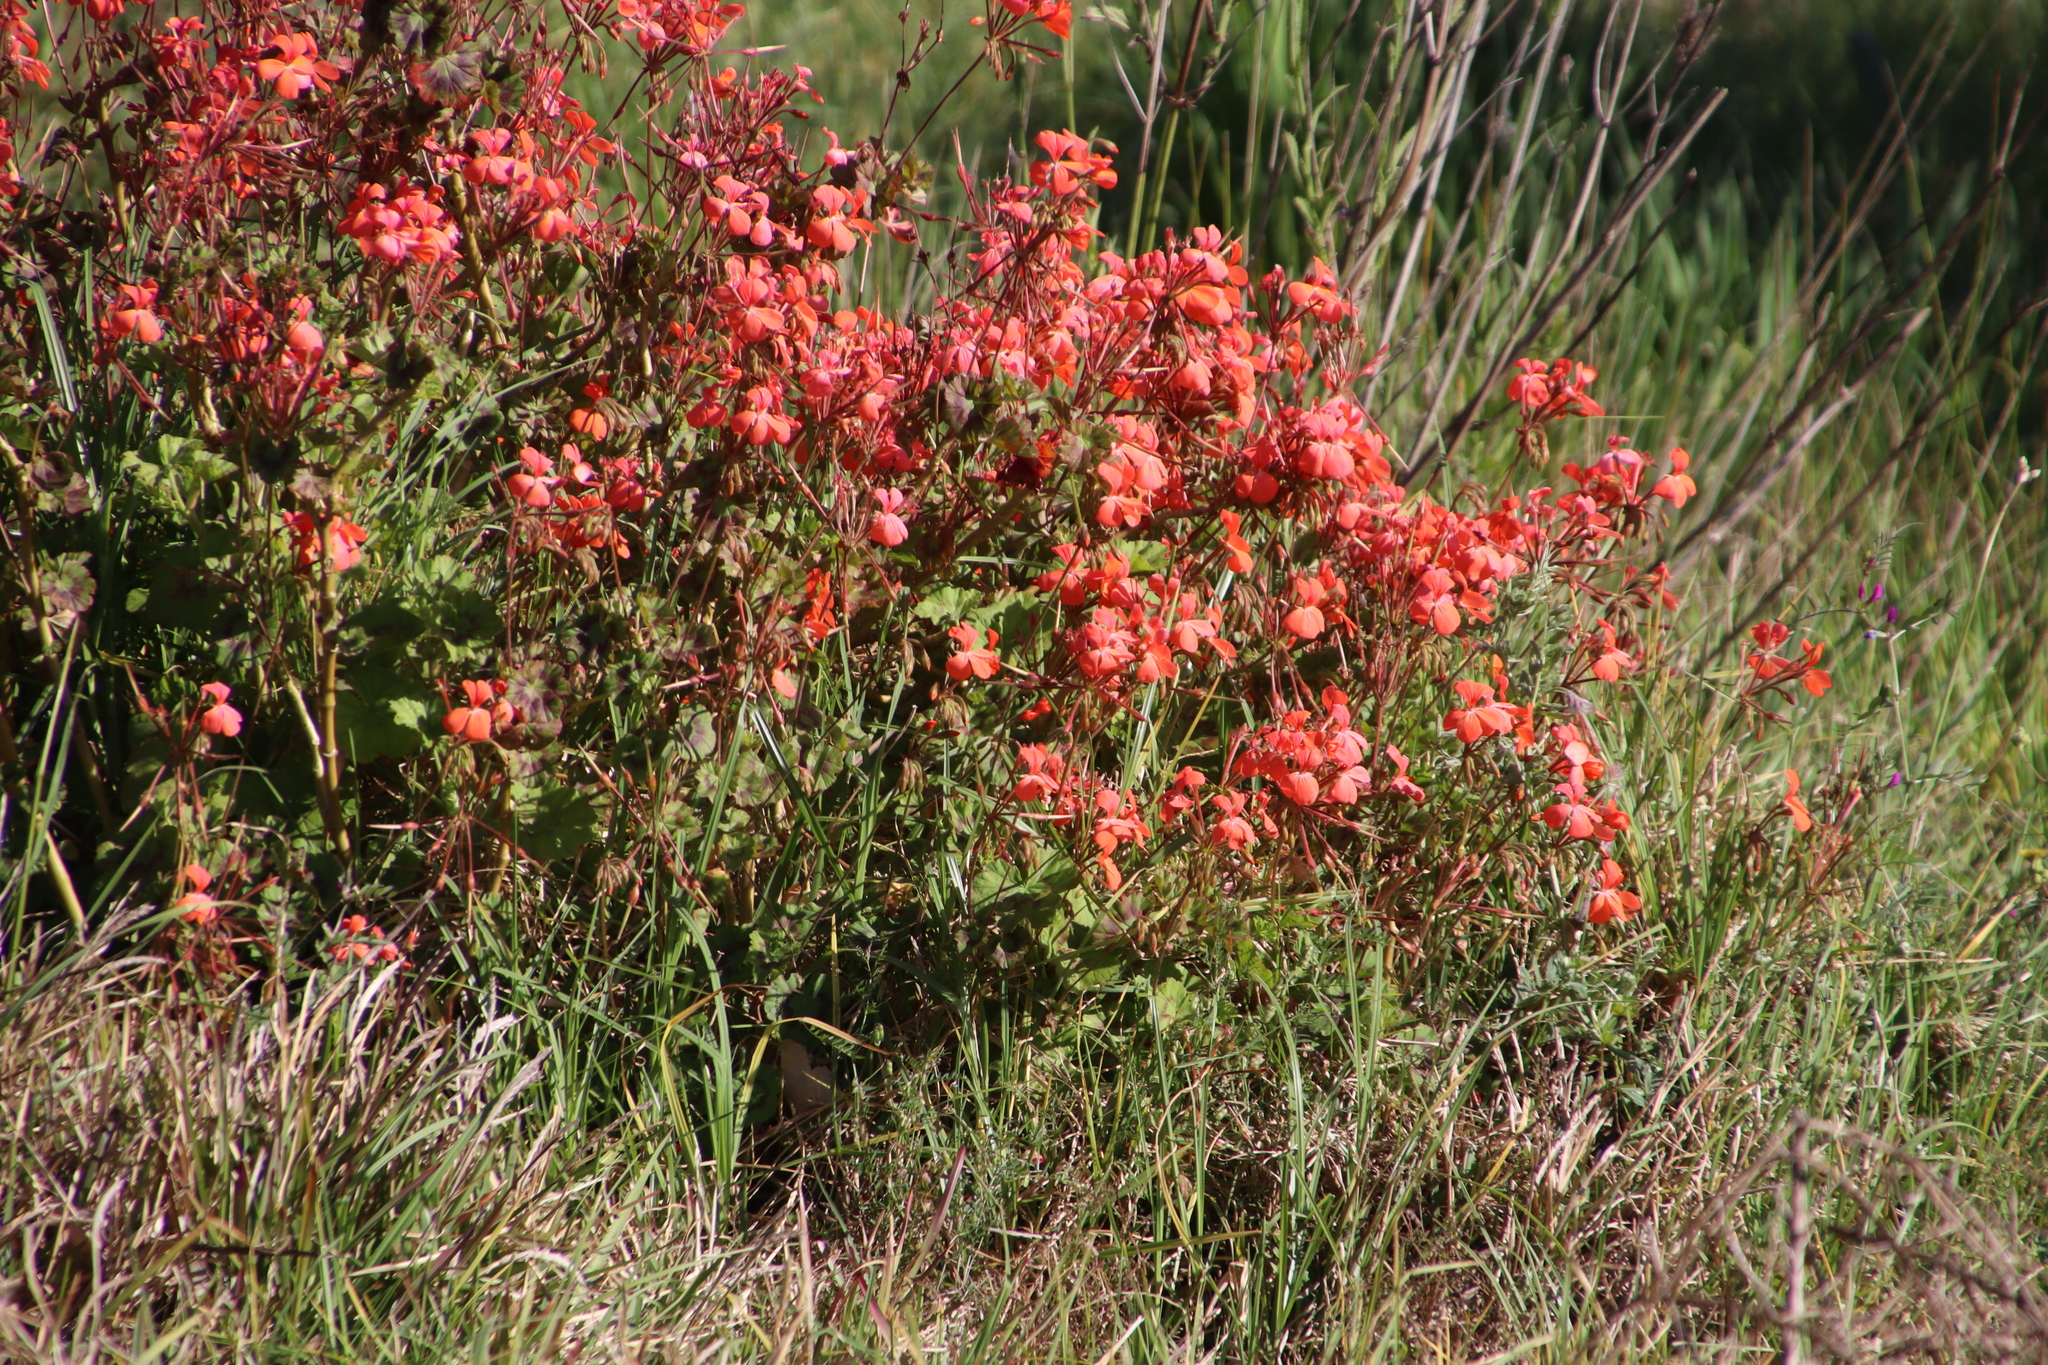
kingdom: Plantae
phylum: Tracheophyta
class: Magnoliopsida
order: Geraniales
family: Geraniaceae
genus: Pelargonium
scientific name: Pelargonium hybridum
